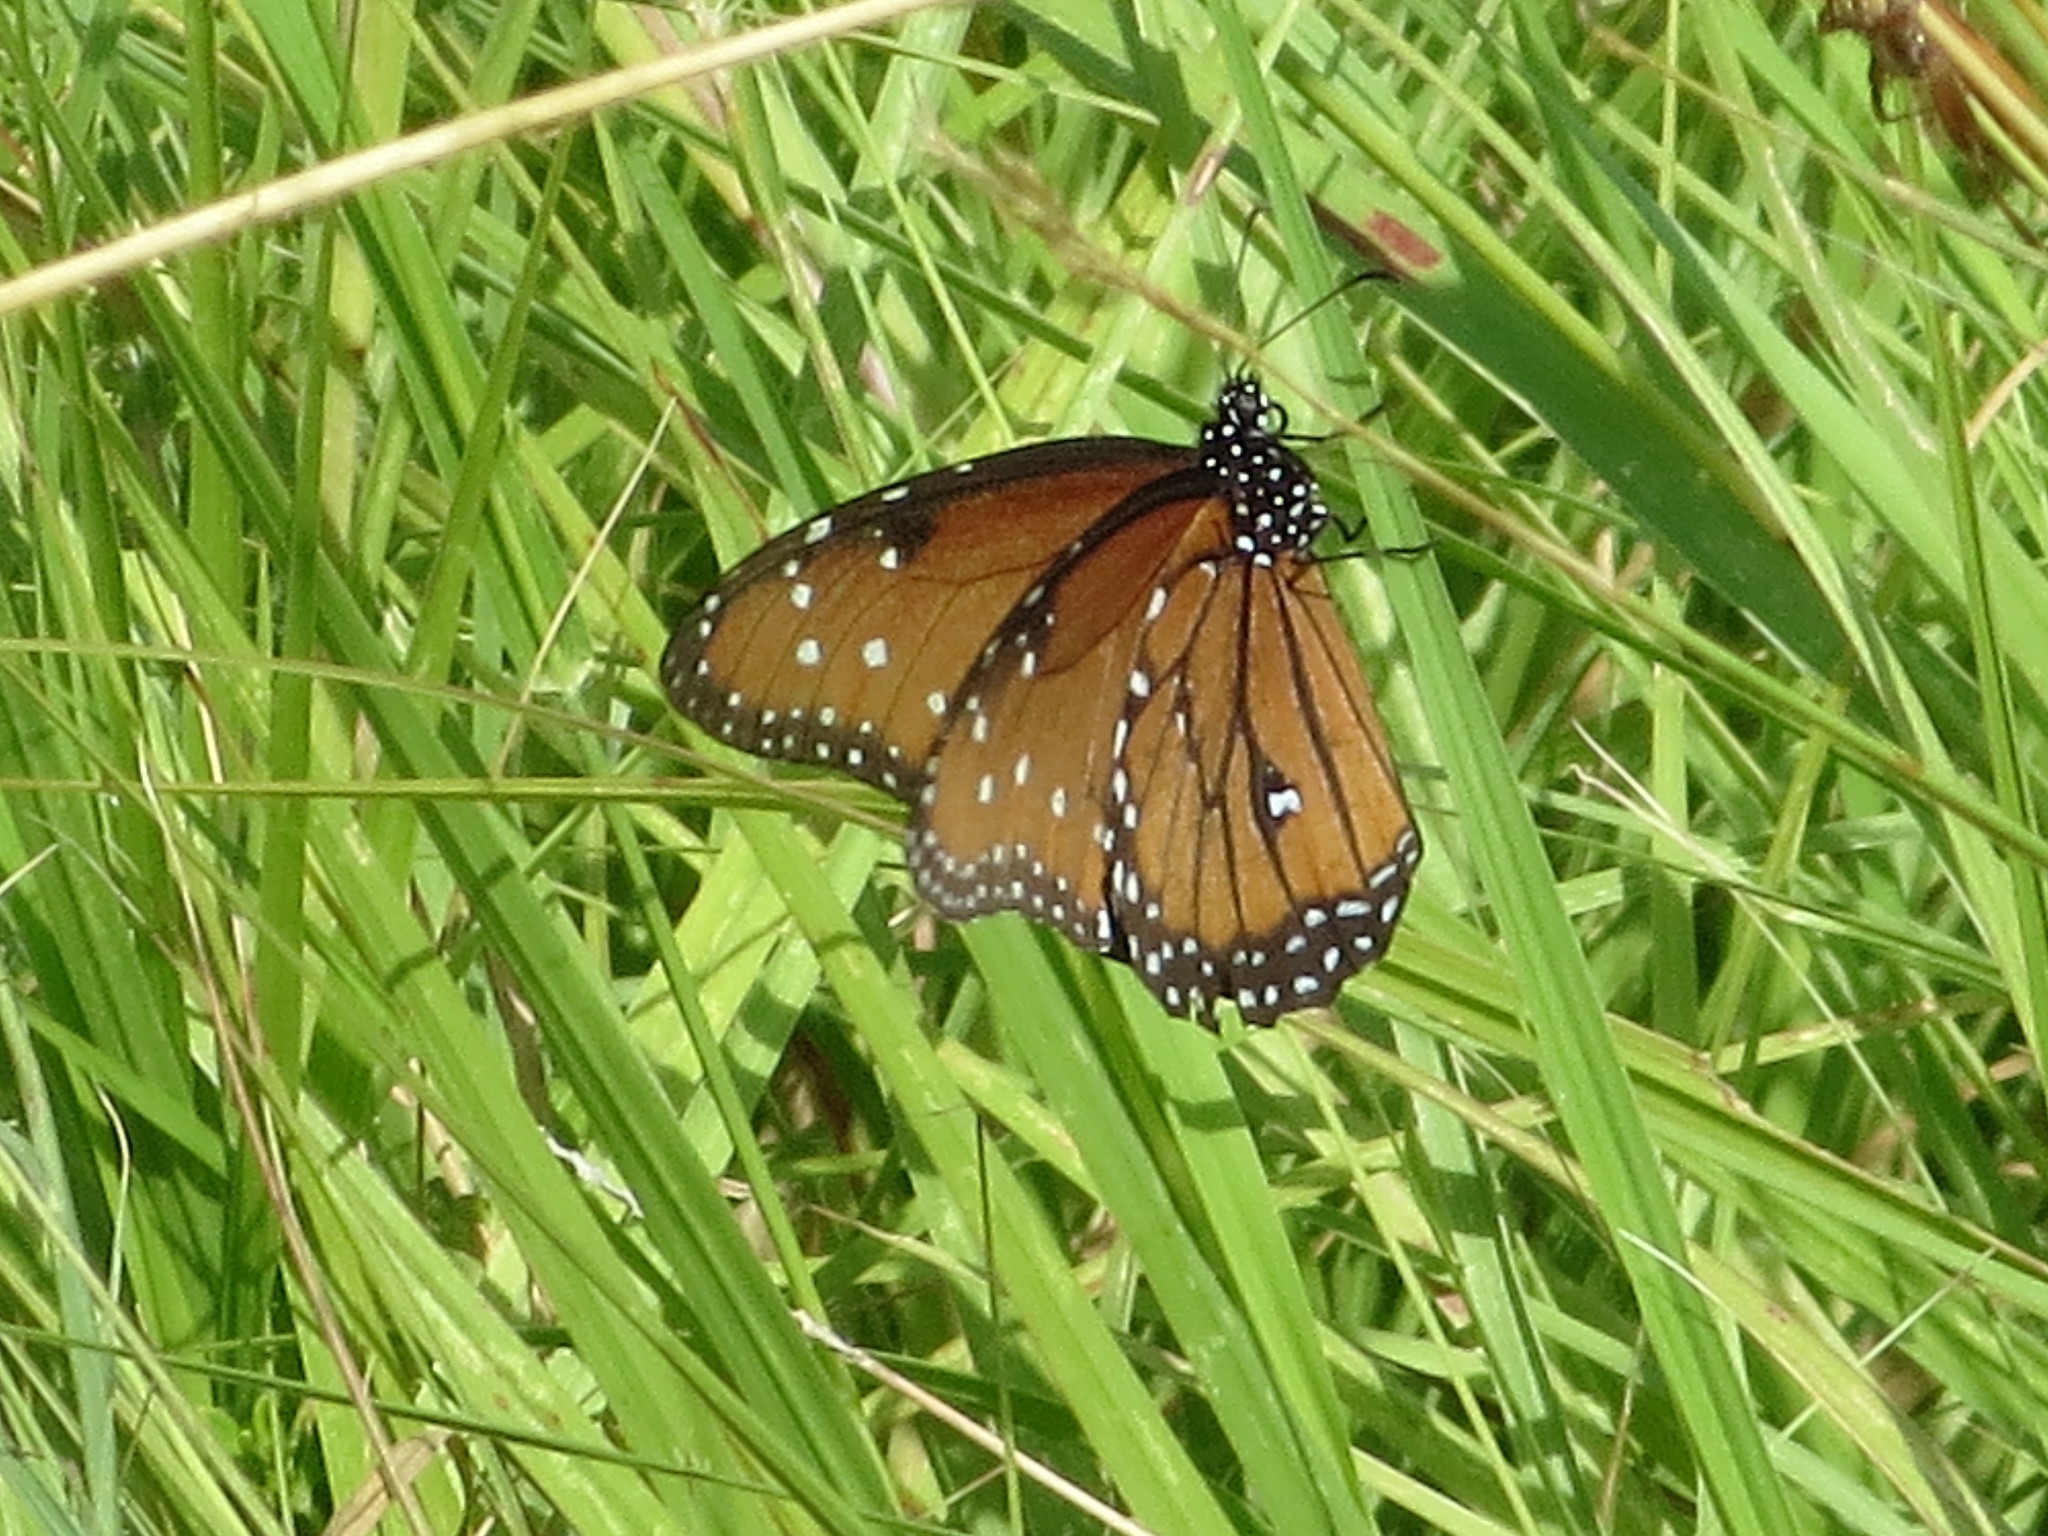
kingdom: Animalia
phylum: Arthropoda
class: Insecta
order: Lepidoptera
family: Nymphalidae
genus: Danaus
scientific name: Danaus gilippus
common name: Queen
